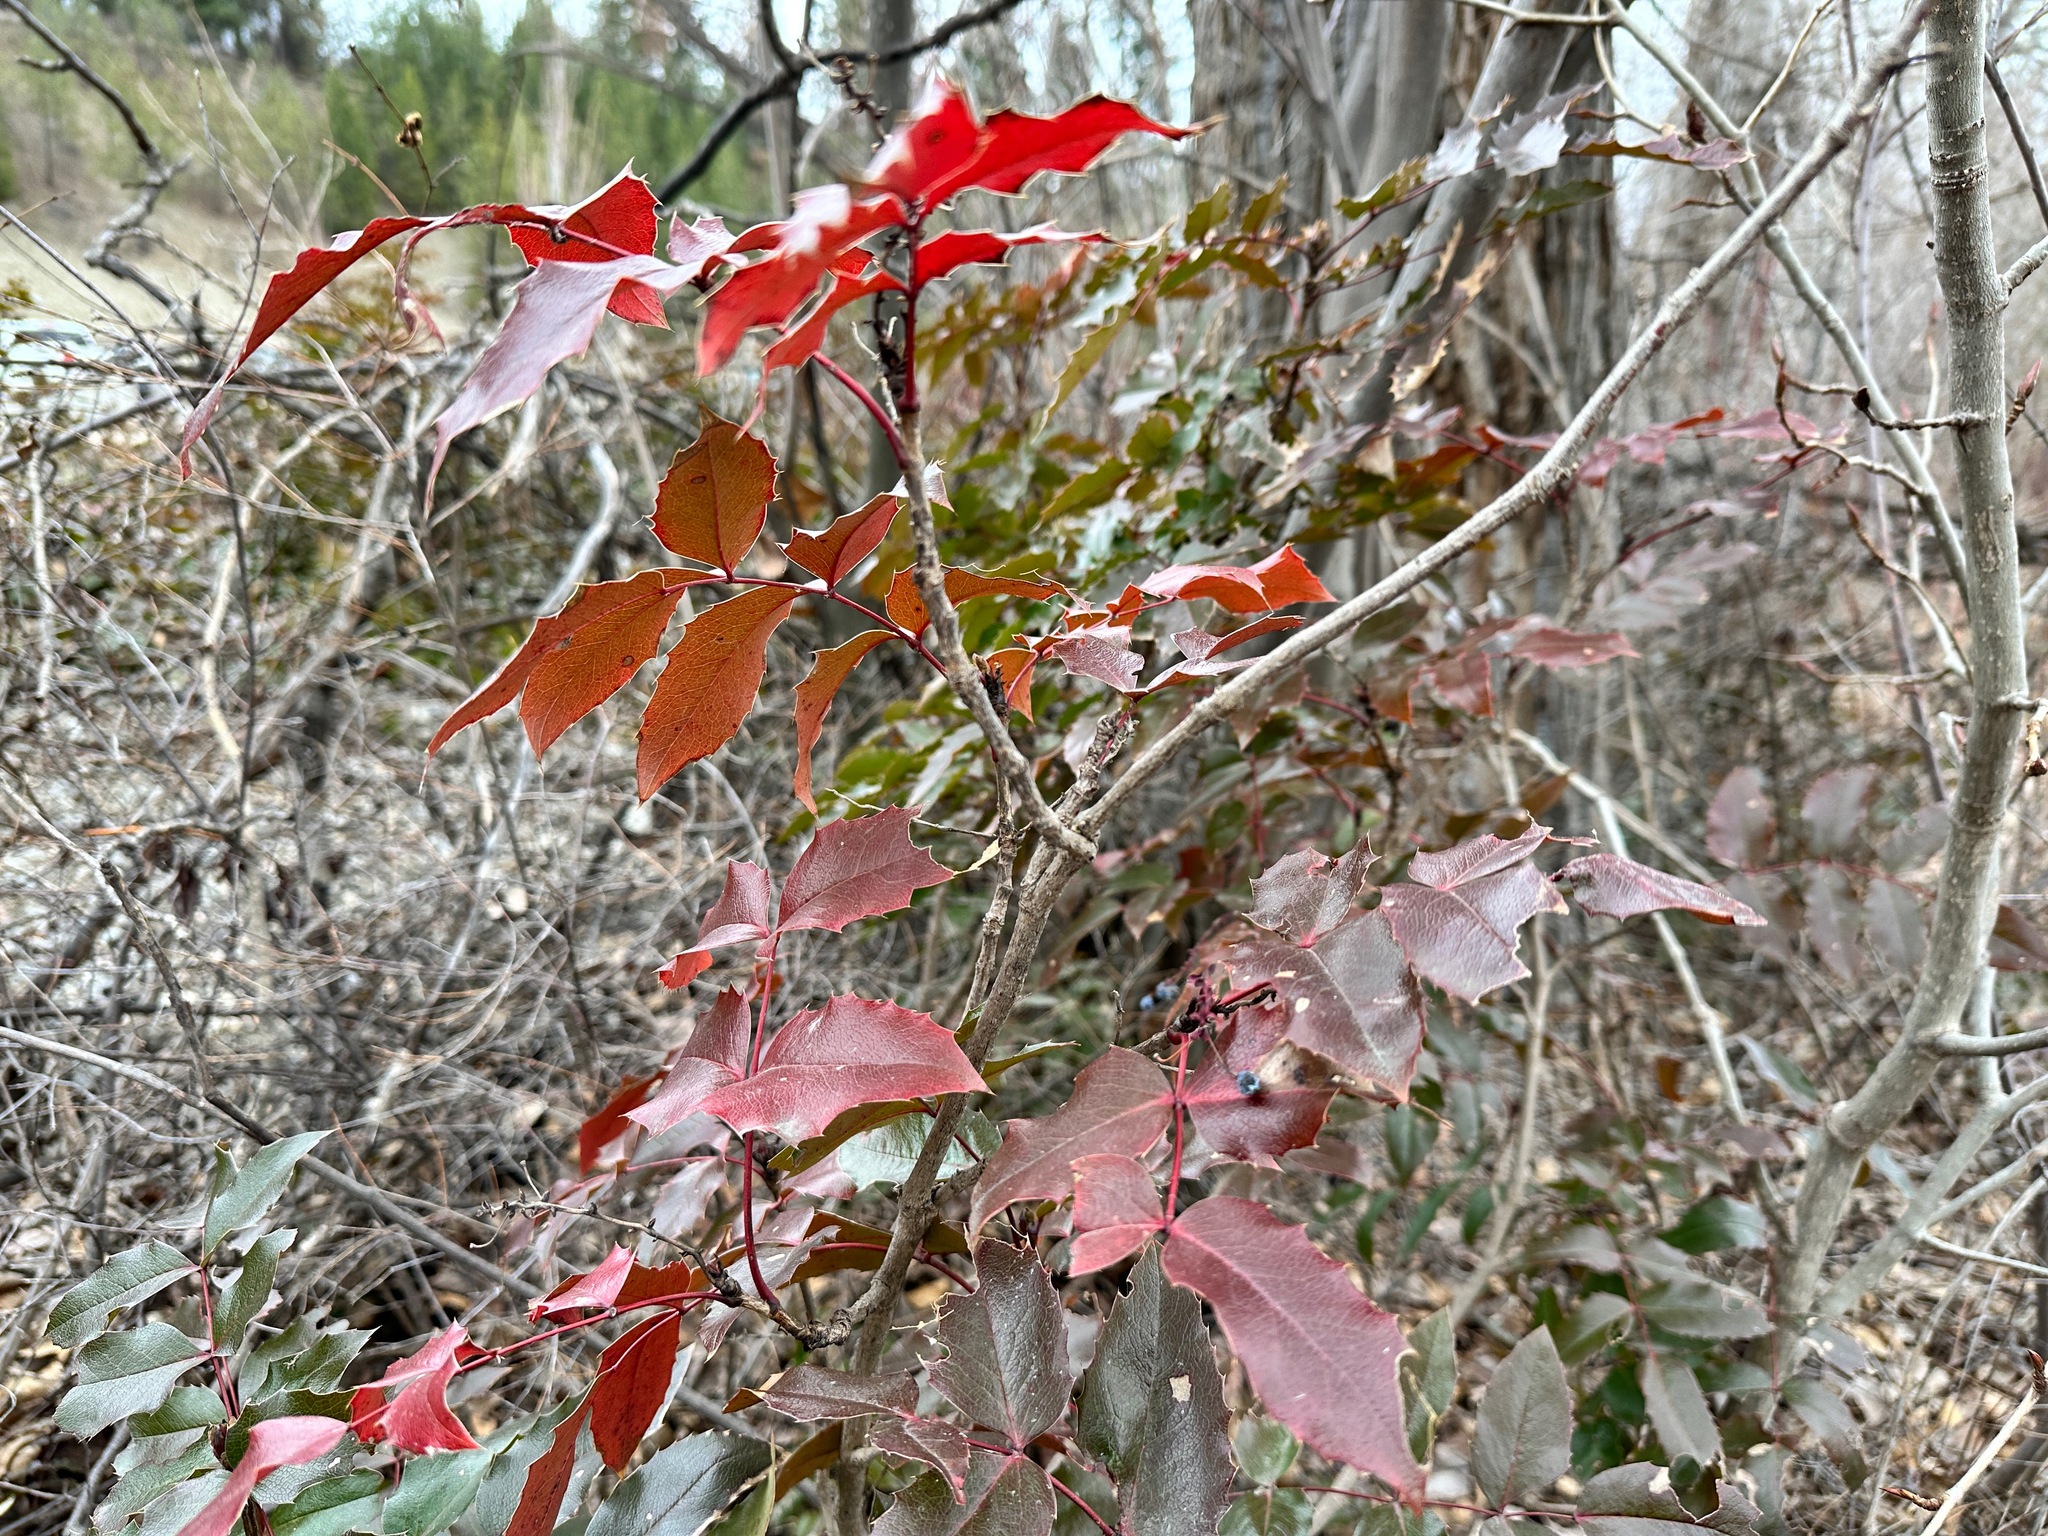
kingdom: Plantae
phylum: Tracheophyta
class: Magnoliopsida
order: Ranunculales
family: Berberidaceae
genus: Mahonia
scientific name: Mahonia aquifolium
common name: Oregon-grape
